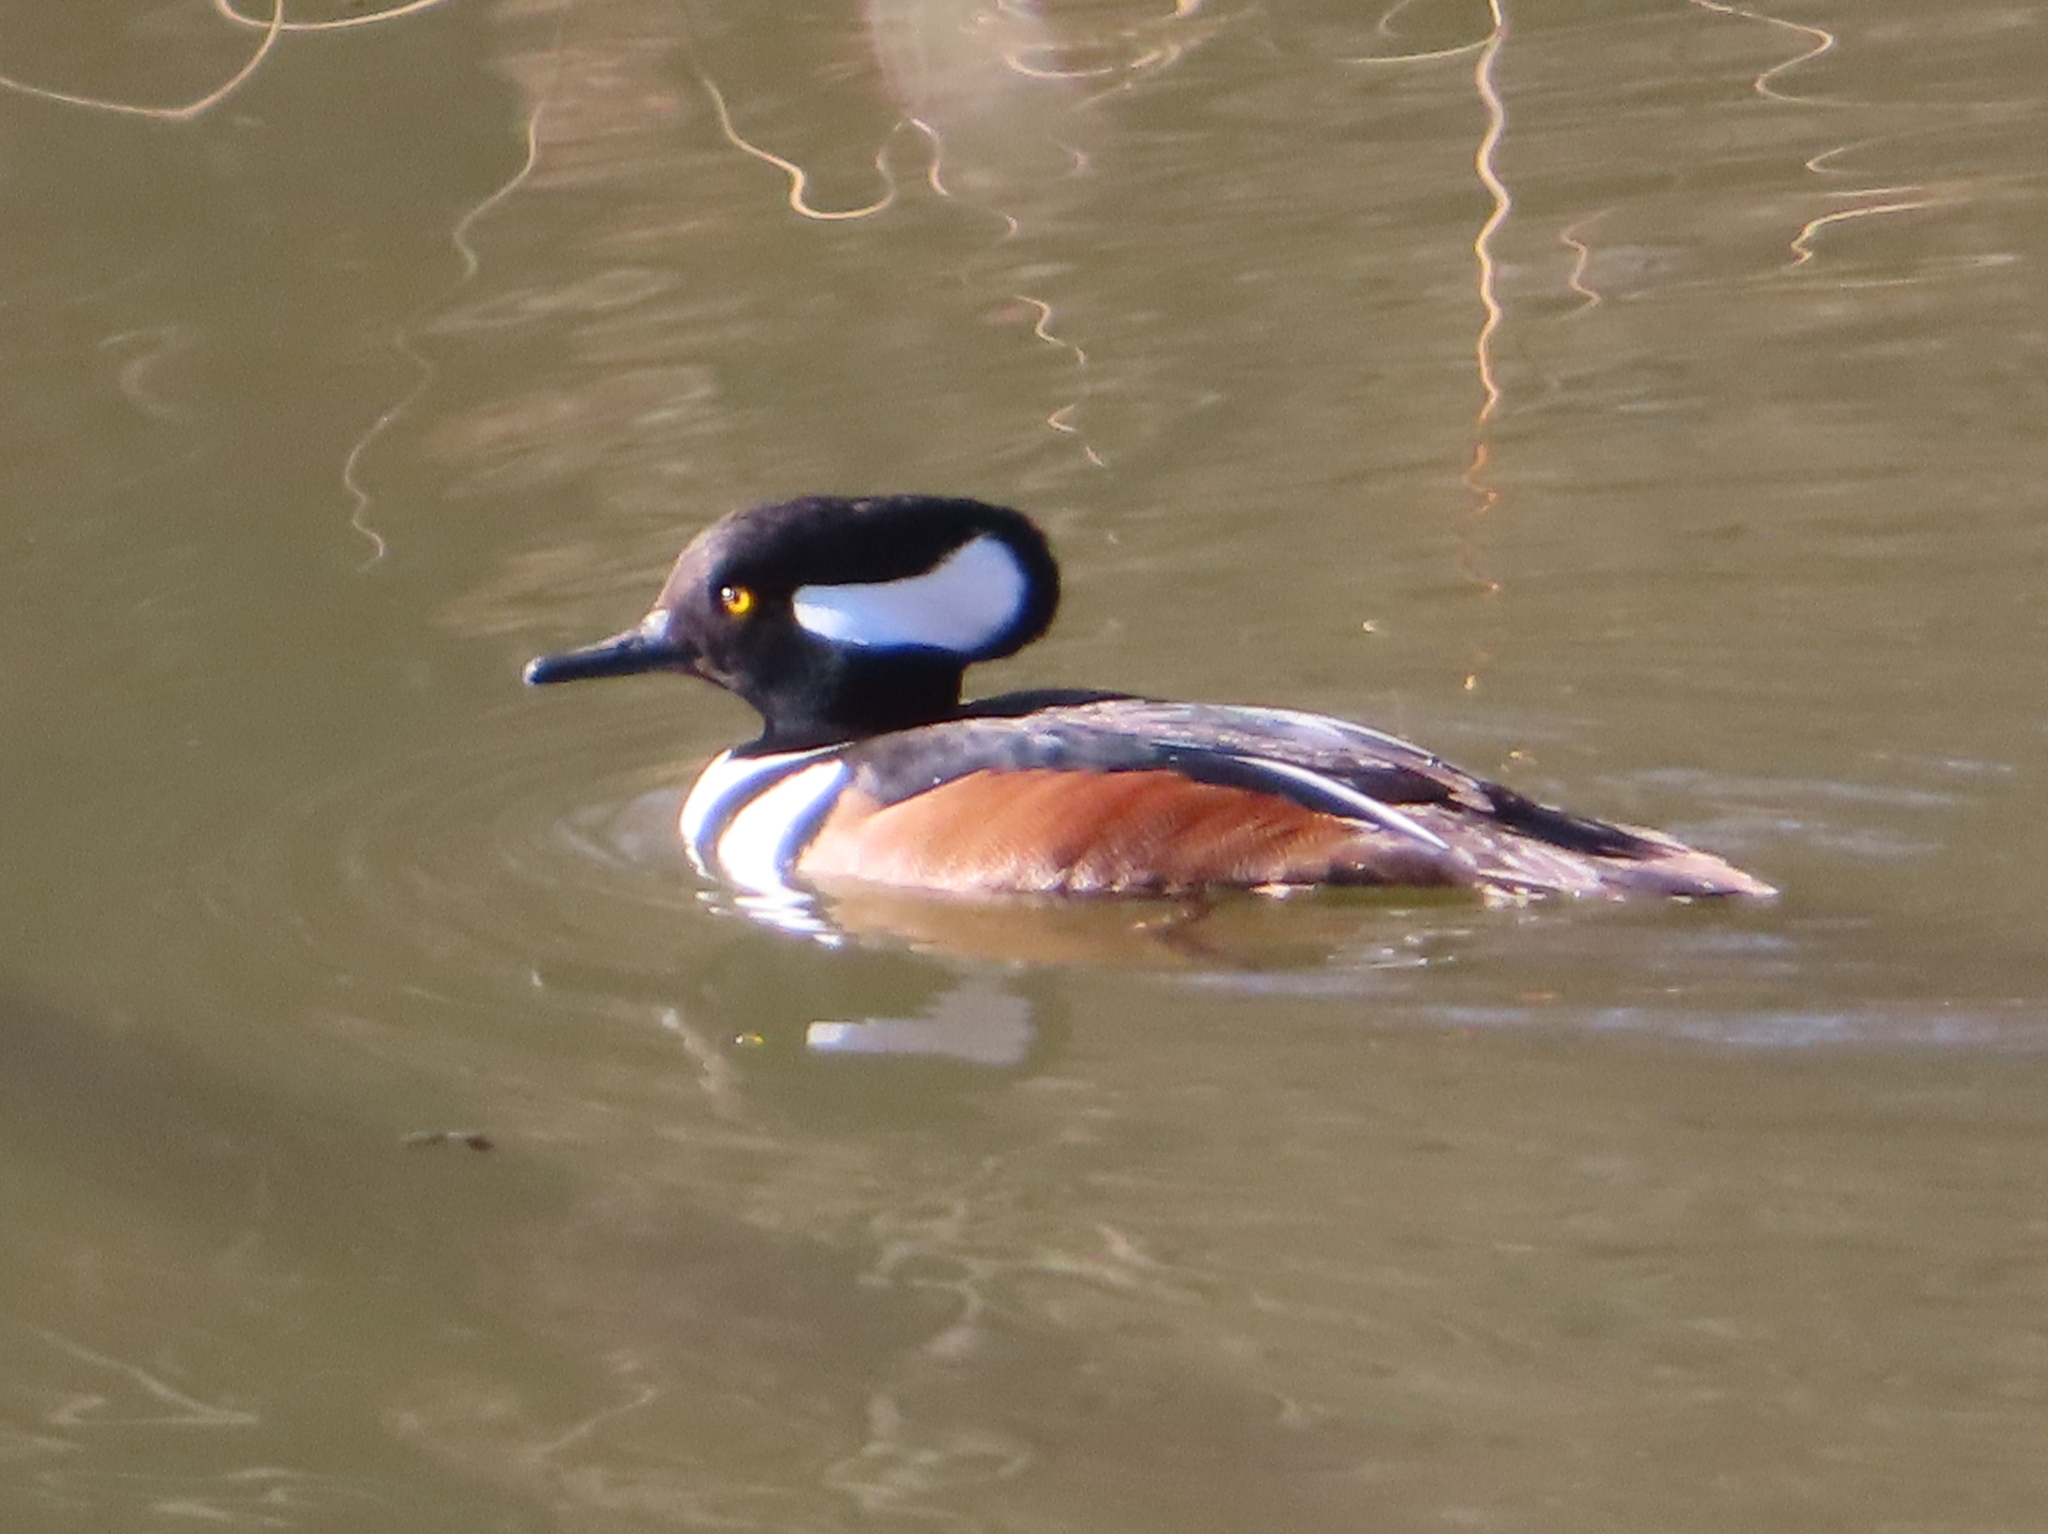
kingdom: Animalia
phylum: Chordata
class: Aves
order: Anseriformes
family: Anatidae
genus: Lophodytes
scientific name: Lophodytes cucullatus
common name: Hooded merganser
